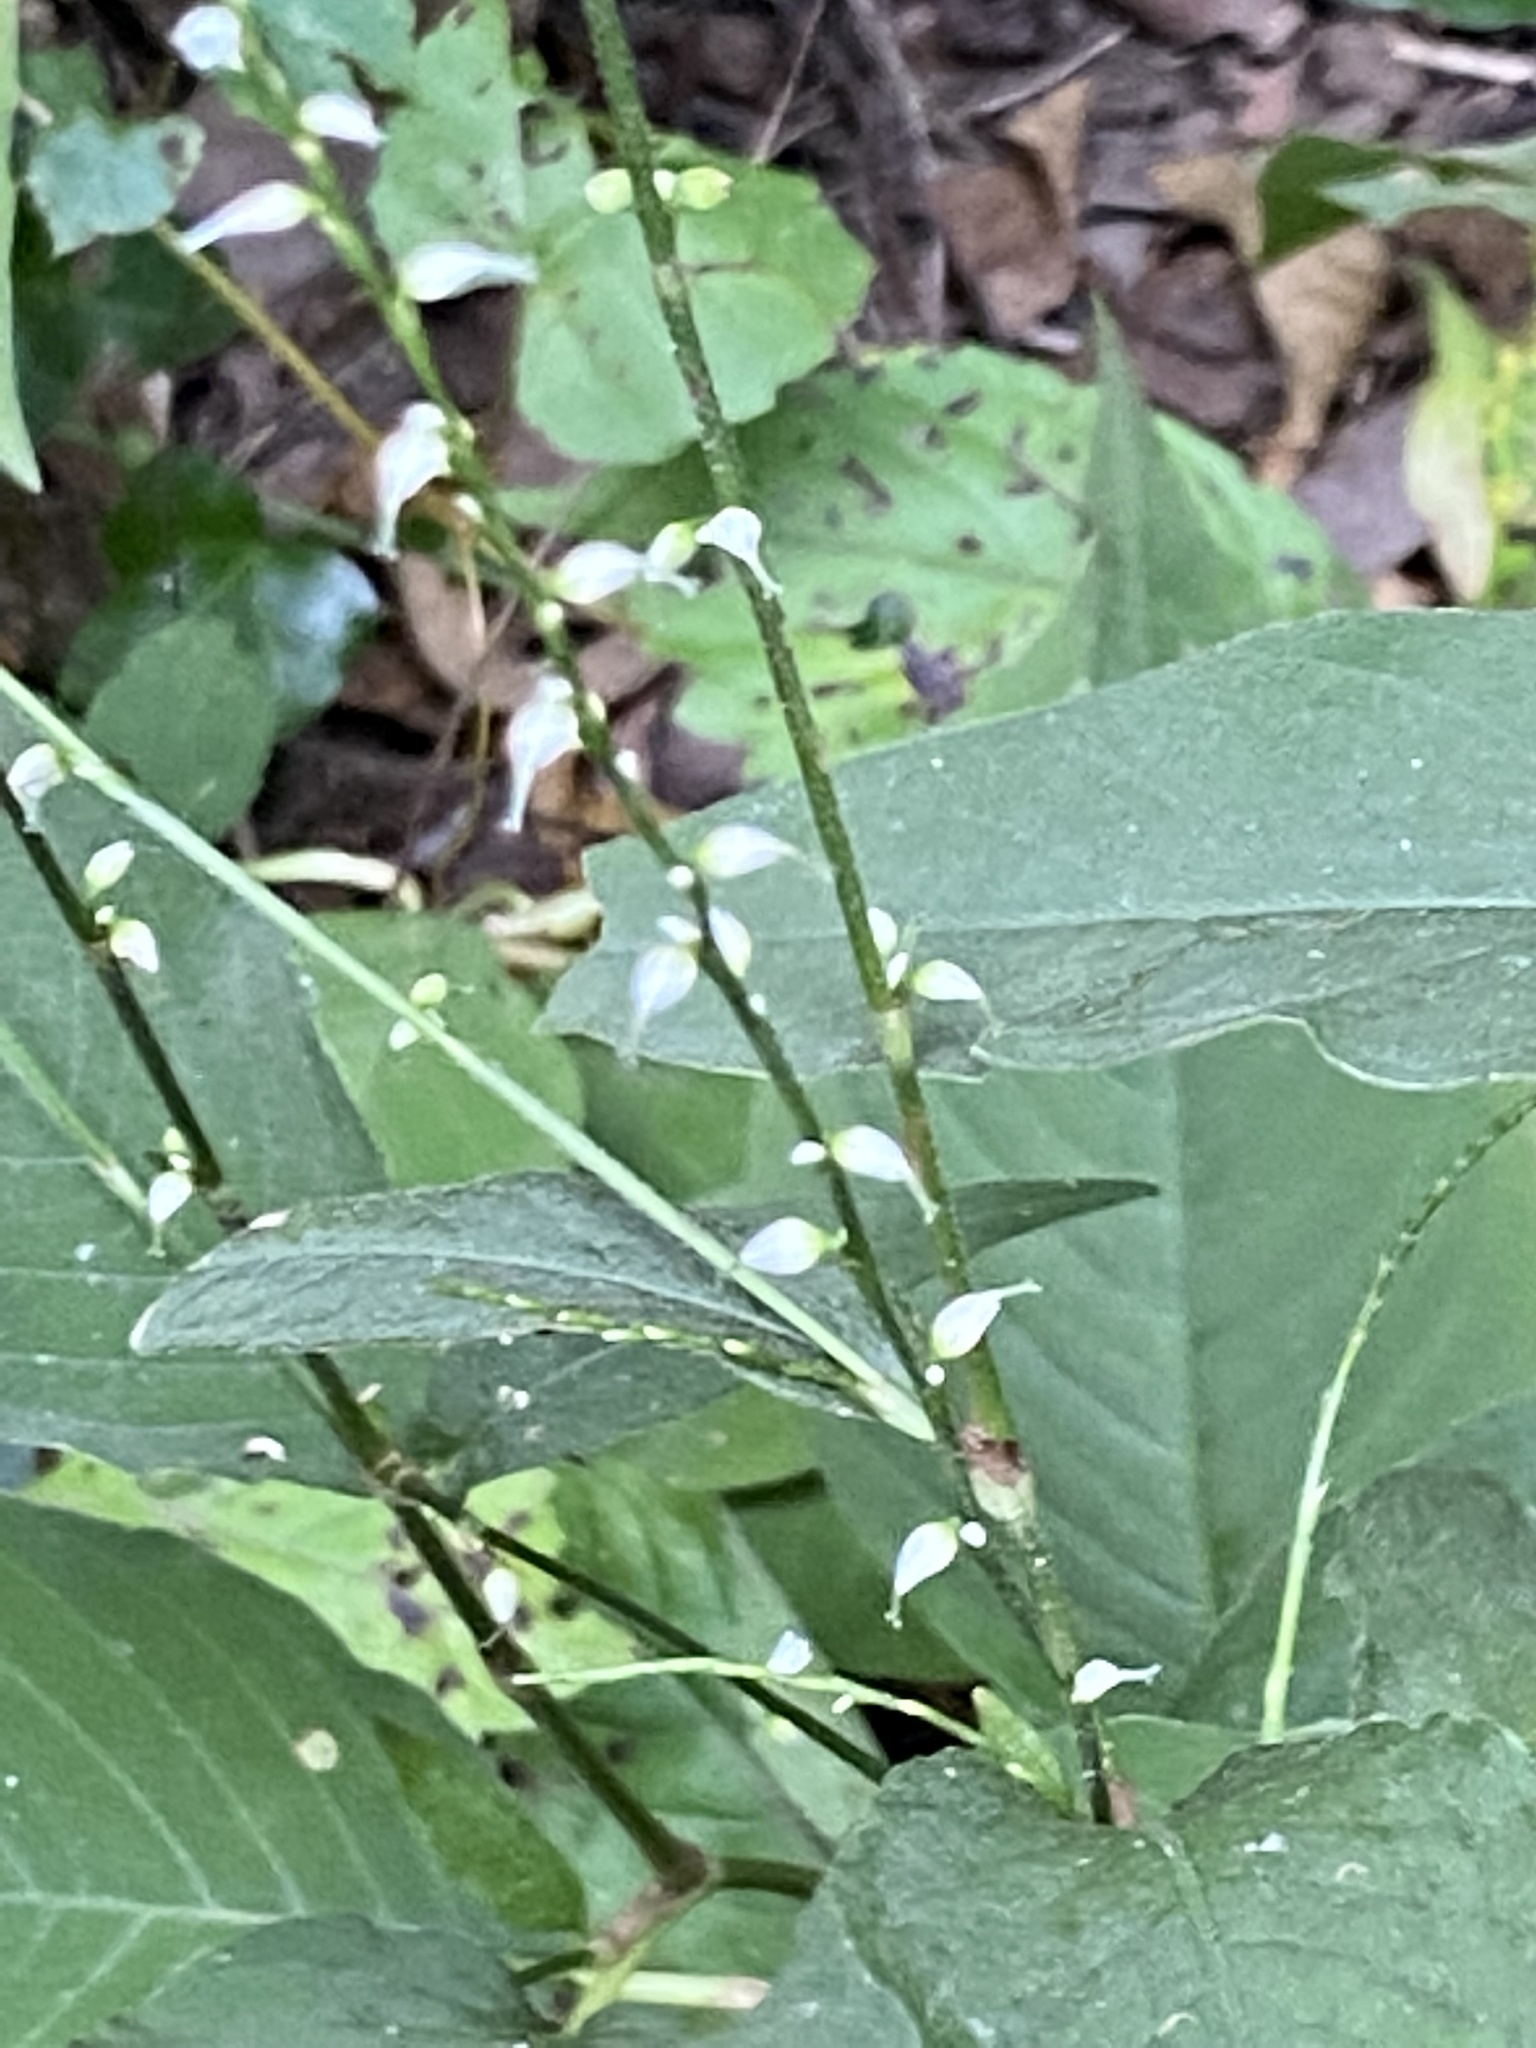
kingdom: Plantae
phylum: Tracheophyta
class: Magnoliopsida
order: Caryophyllales
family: Polygonaceae
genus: Persicaria
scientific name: Persicaria virginiana
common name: Jumpseed
